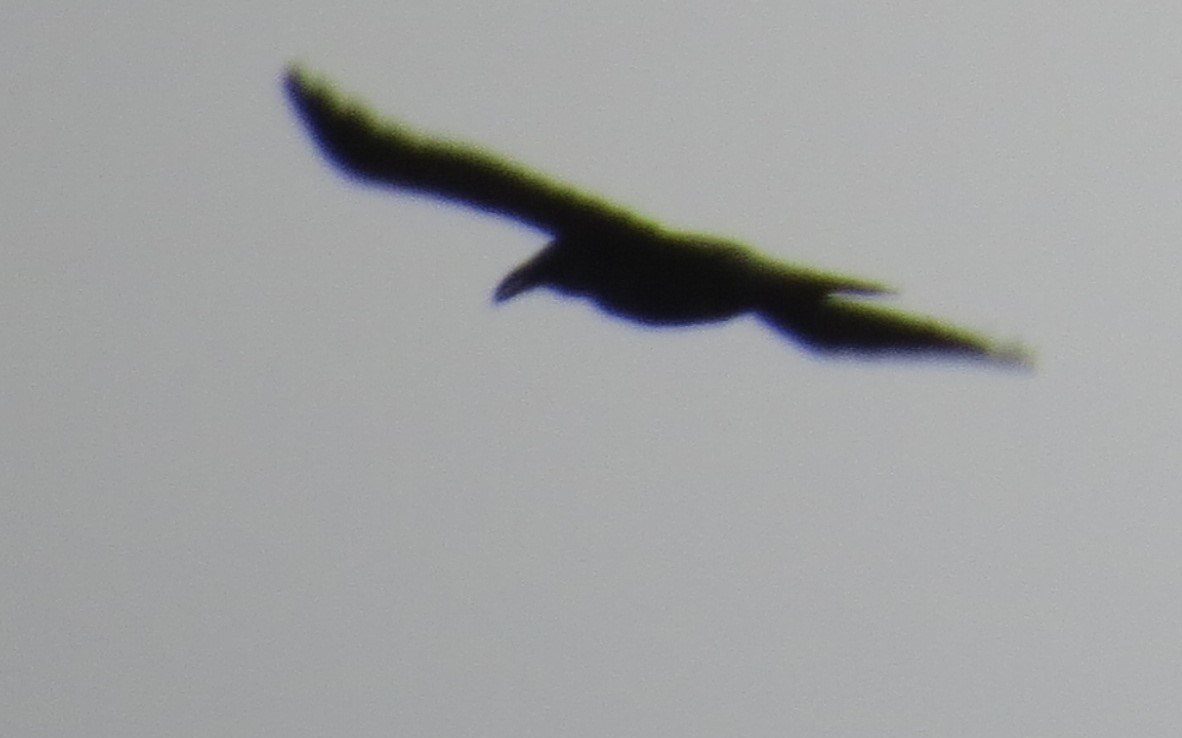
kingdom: Animalia
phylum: Chordata
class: Aves
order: Passeriformes
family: Corvidae
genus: Corvus
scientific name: Corvus corax
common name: Common raven
